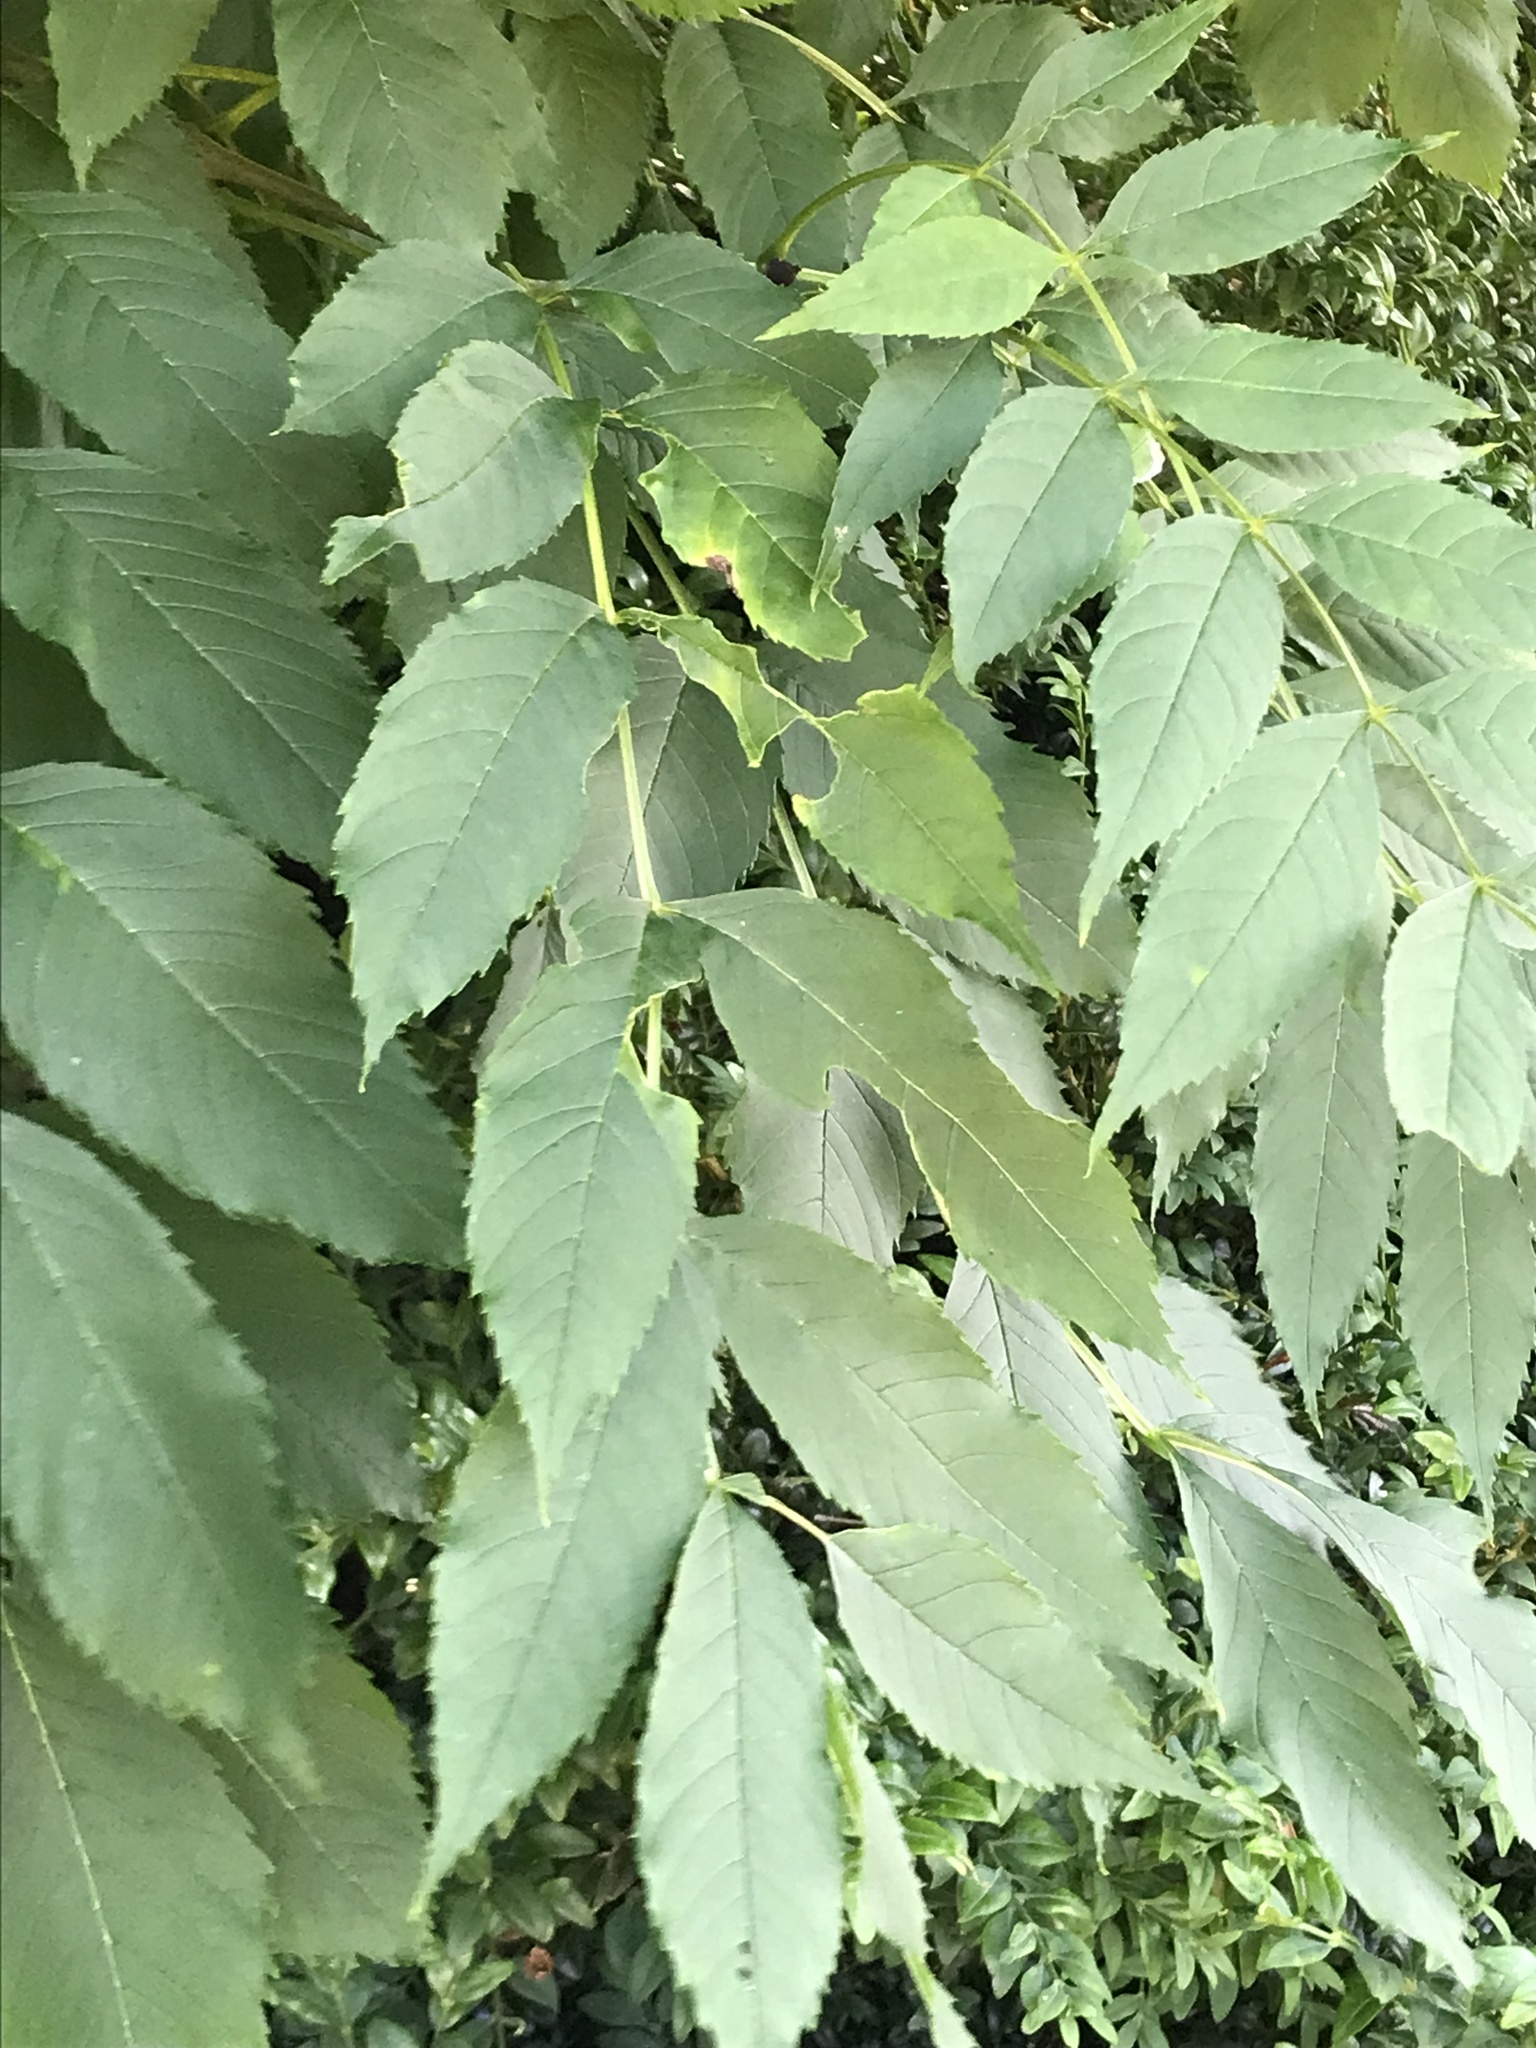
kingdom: Plantae
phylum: Tracheophyta
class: Magnoliopsida
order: Lamiales
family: Oleaceae
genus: Fraxinus
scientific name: Fraxinus excelsior
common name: European ash
